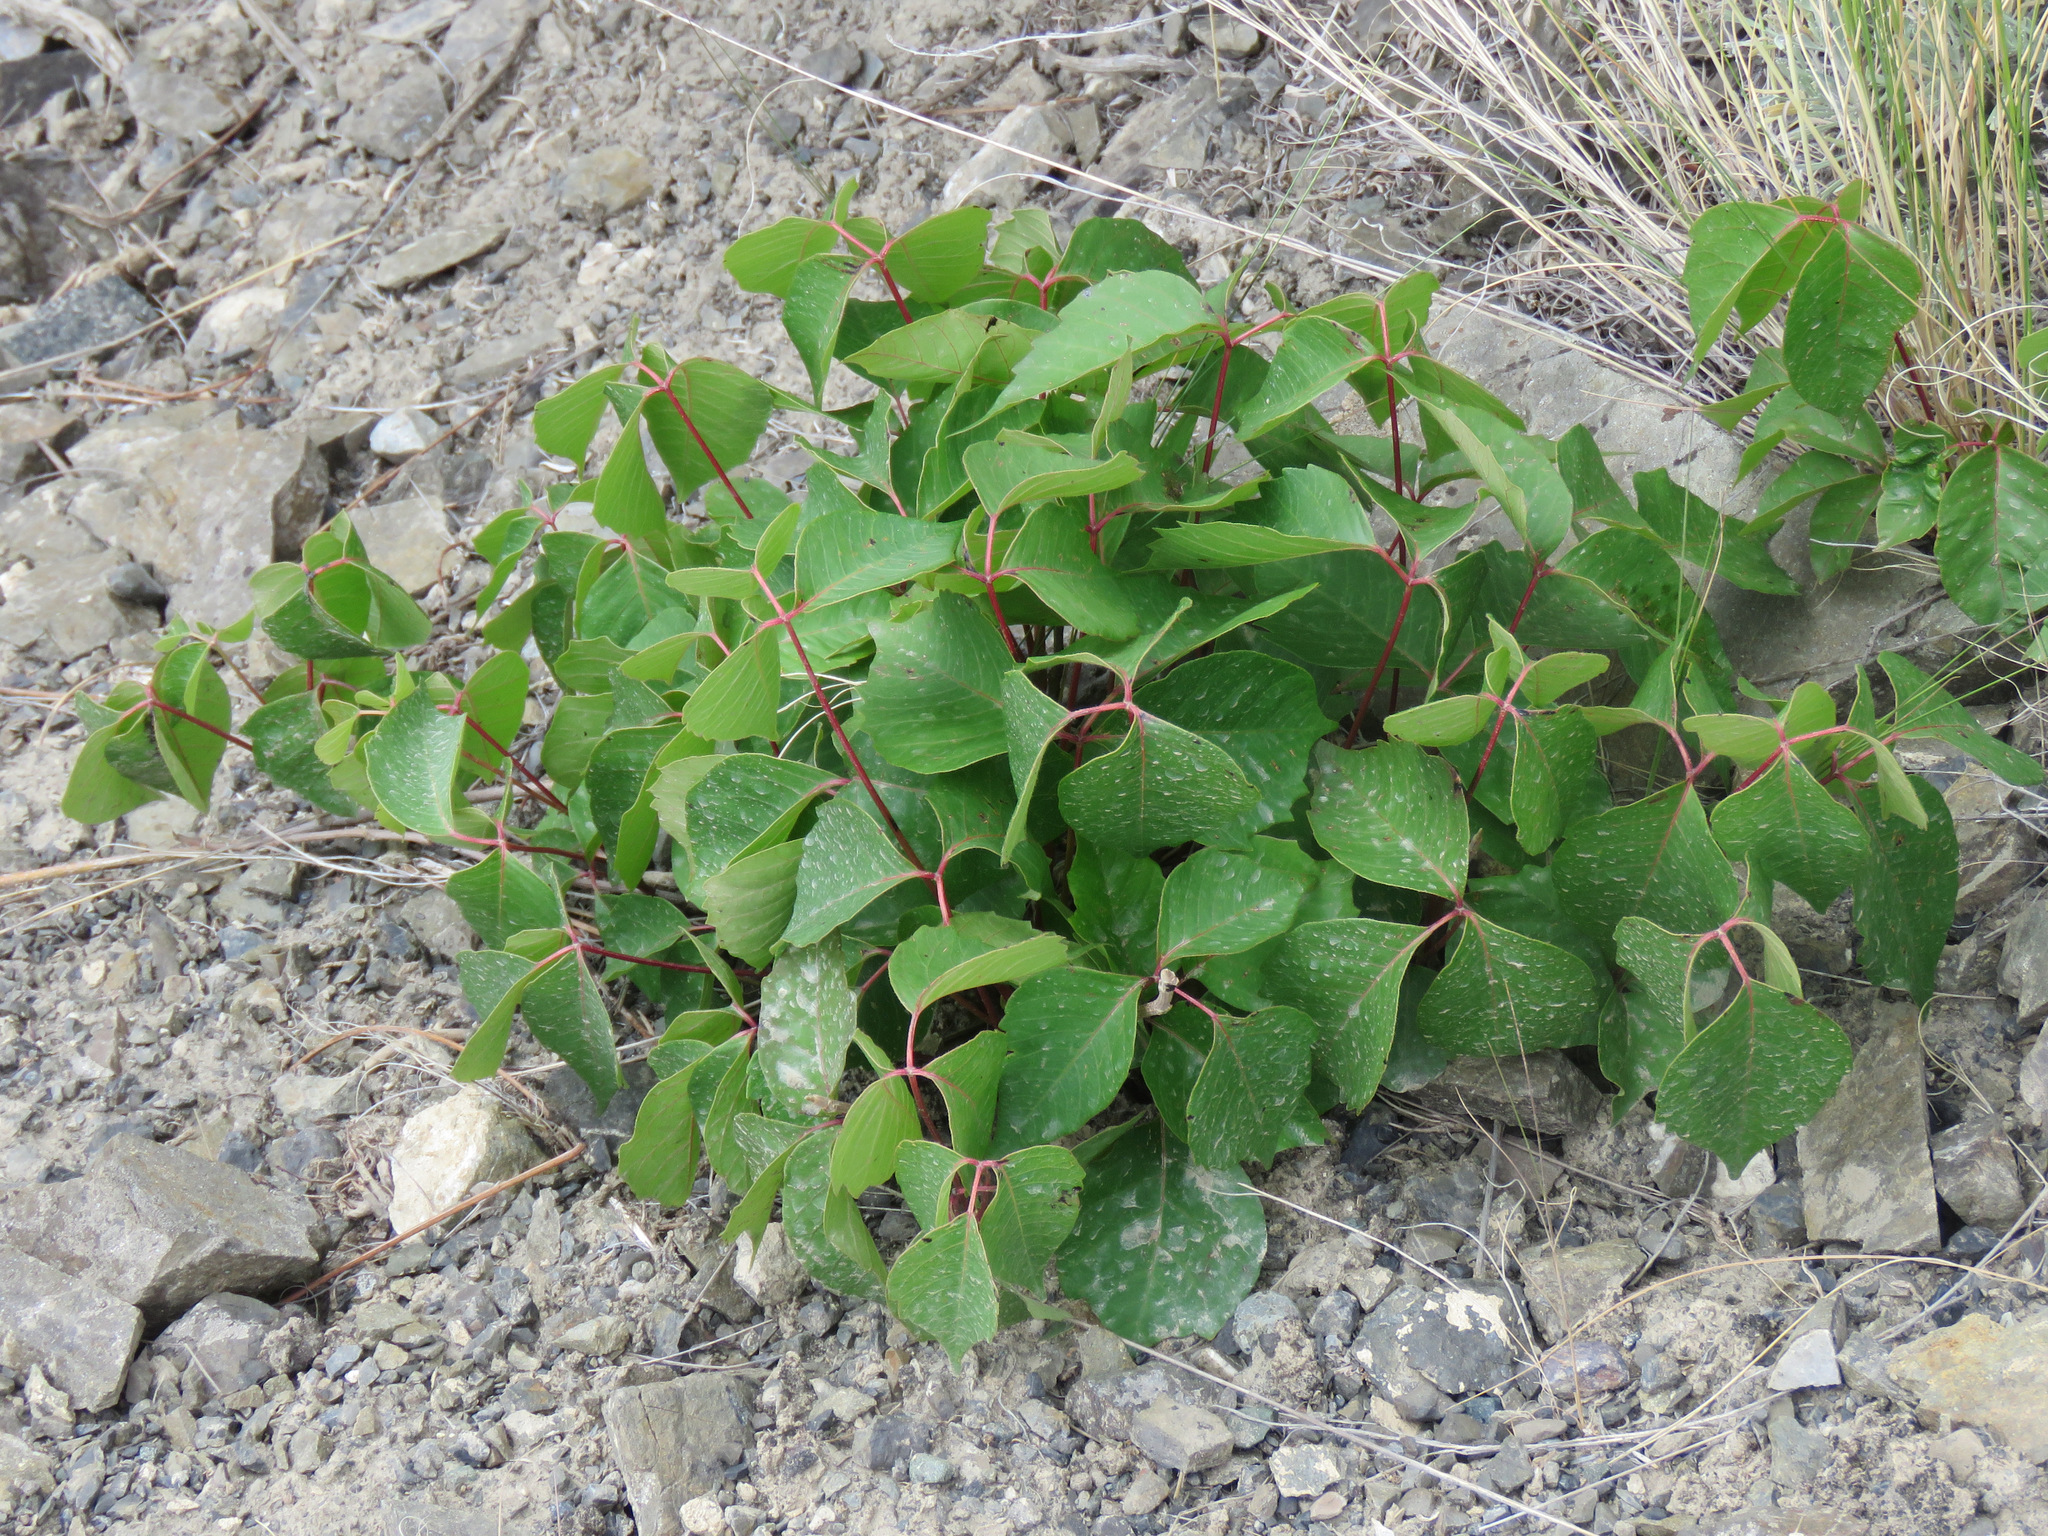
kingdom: Plantae
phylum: Tracheophyta
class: Magnoliopsida
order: Sapindales
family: Anacardiaceae
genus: Toxicodendron
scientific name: Toxicodendron rydbergii
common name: Rydberg's poison-ivy
